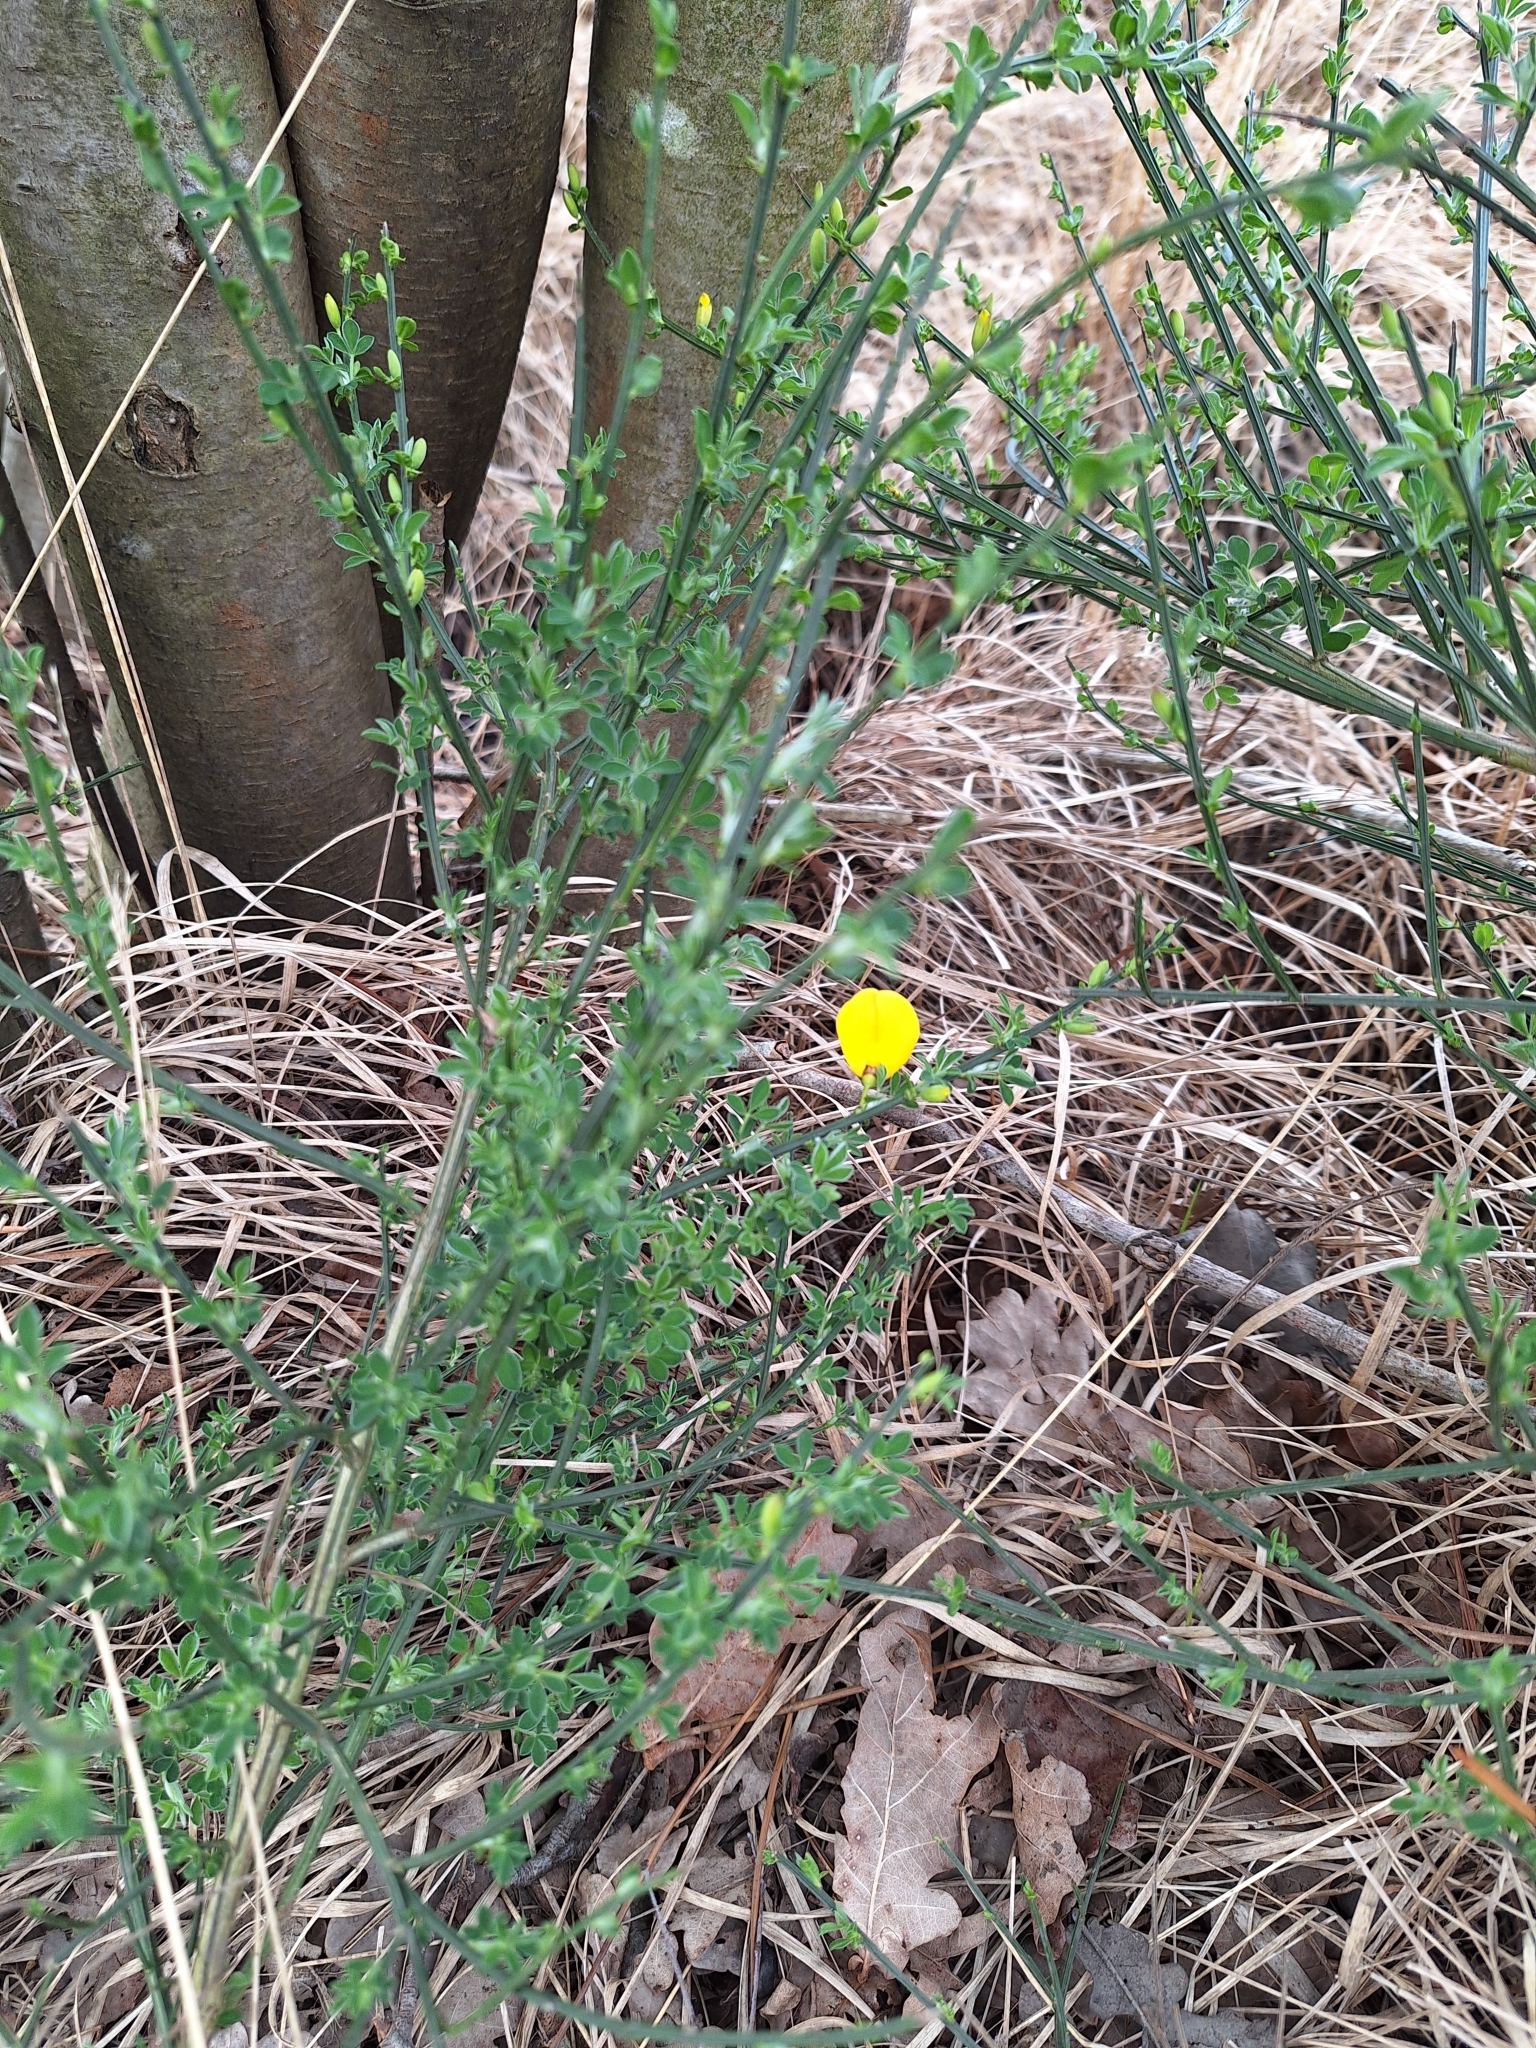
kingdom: Plantae
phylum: Tracheophyta
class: Magnoliopsida
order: Fabales
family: Fabaceae
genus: Cytisus
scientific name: Cytisus scoparius
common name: Scotch broom
